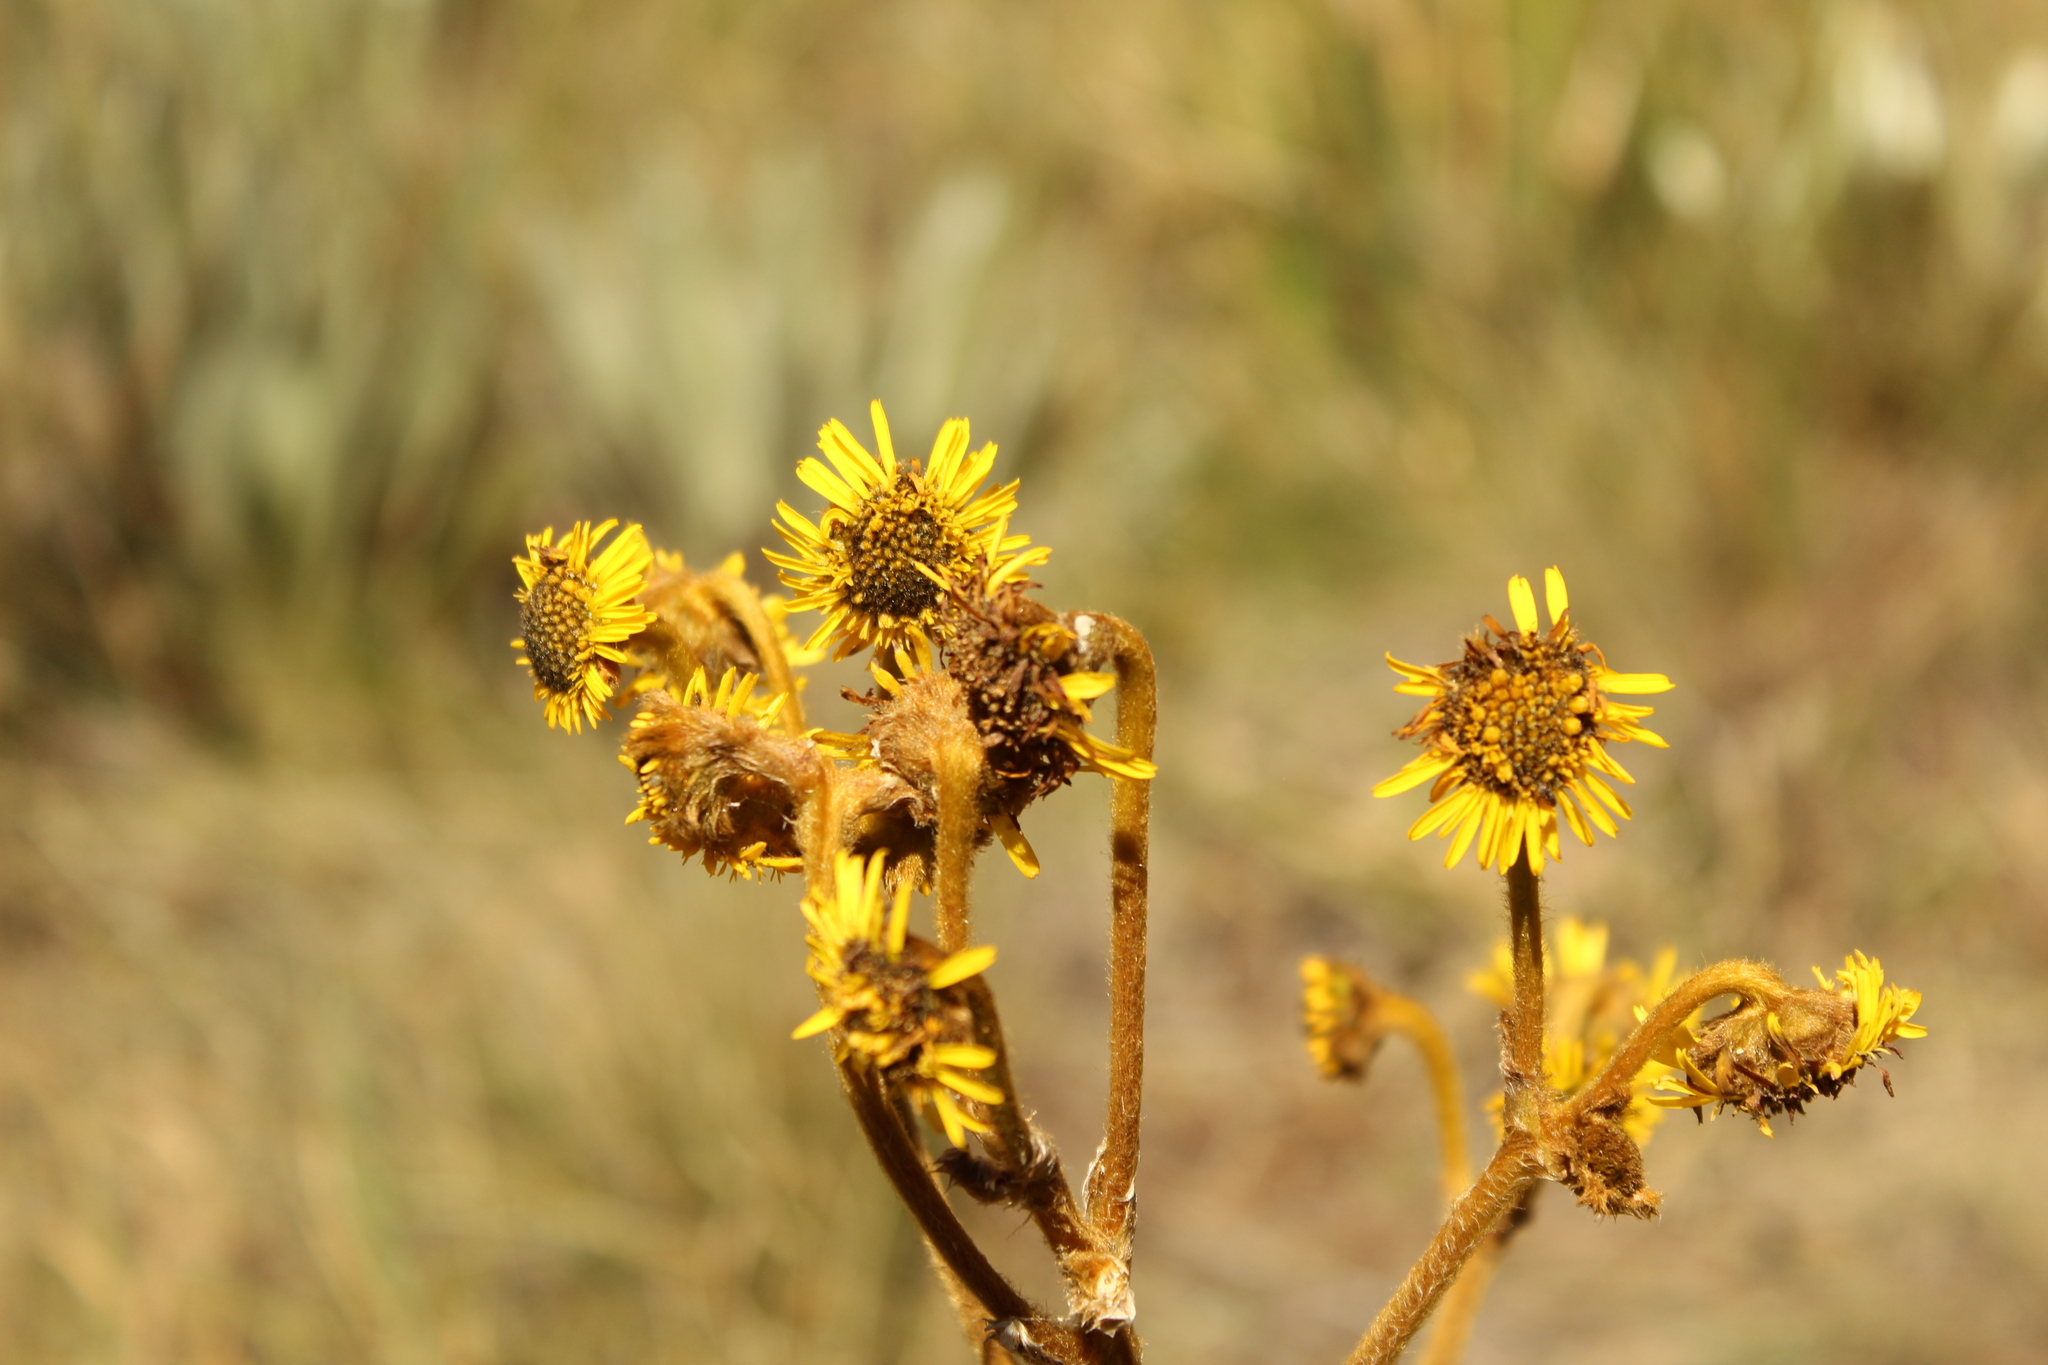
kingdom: Plantae
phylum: Tracheophyta
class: Magnoliopsida
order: Asterales
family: Asteraceae
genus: Espeletia
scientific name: Espeletia boyacensis
